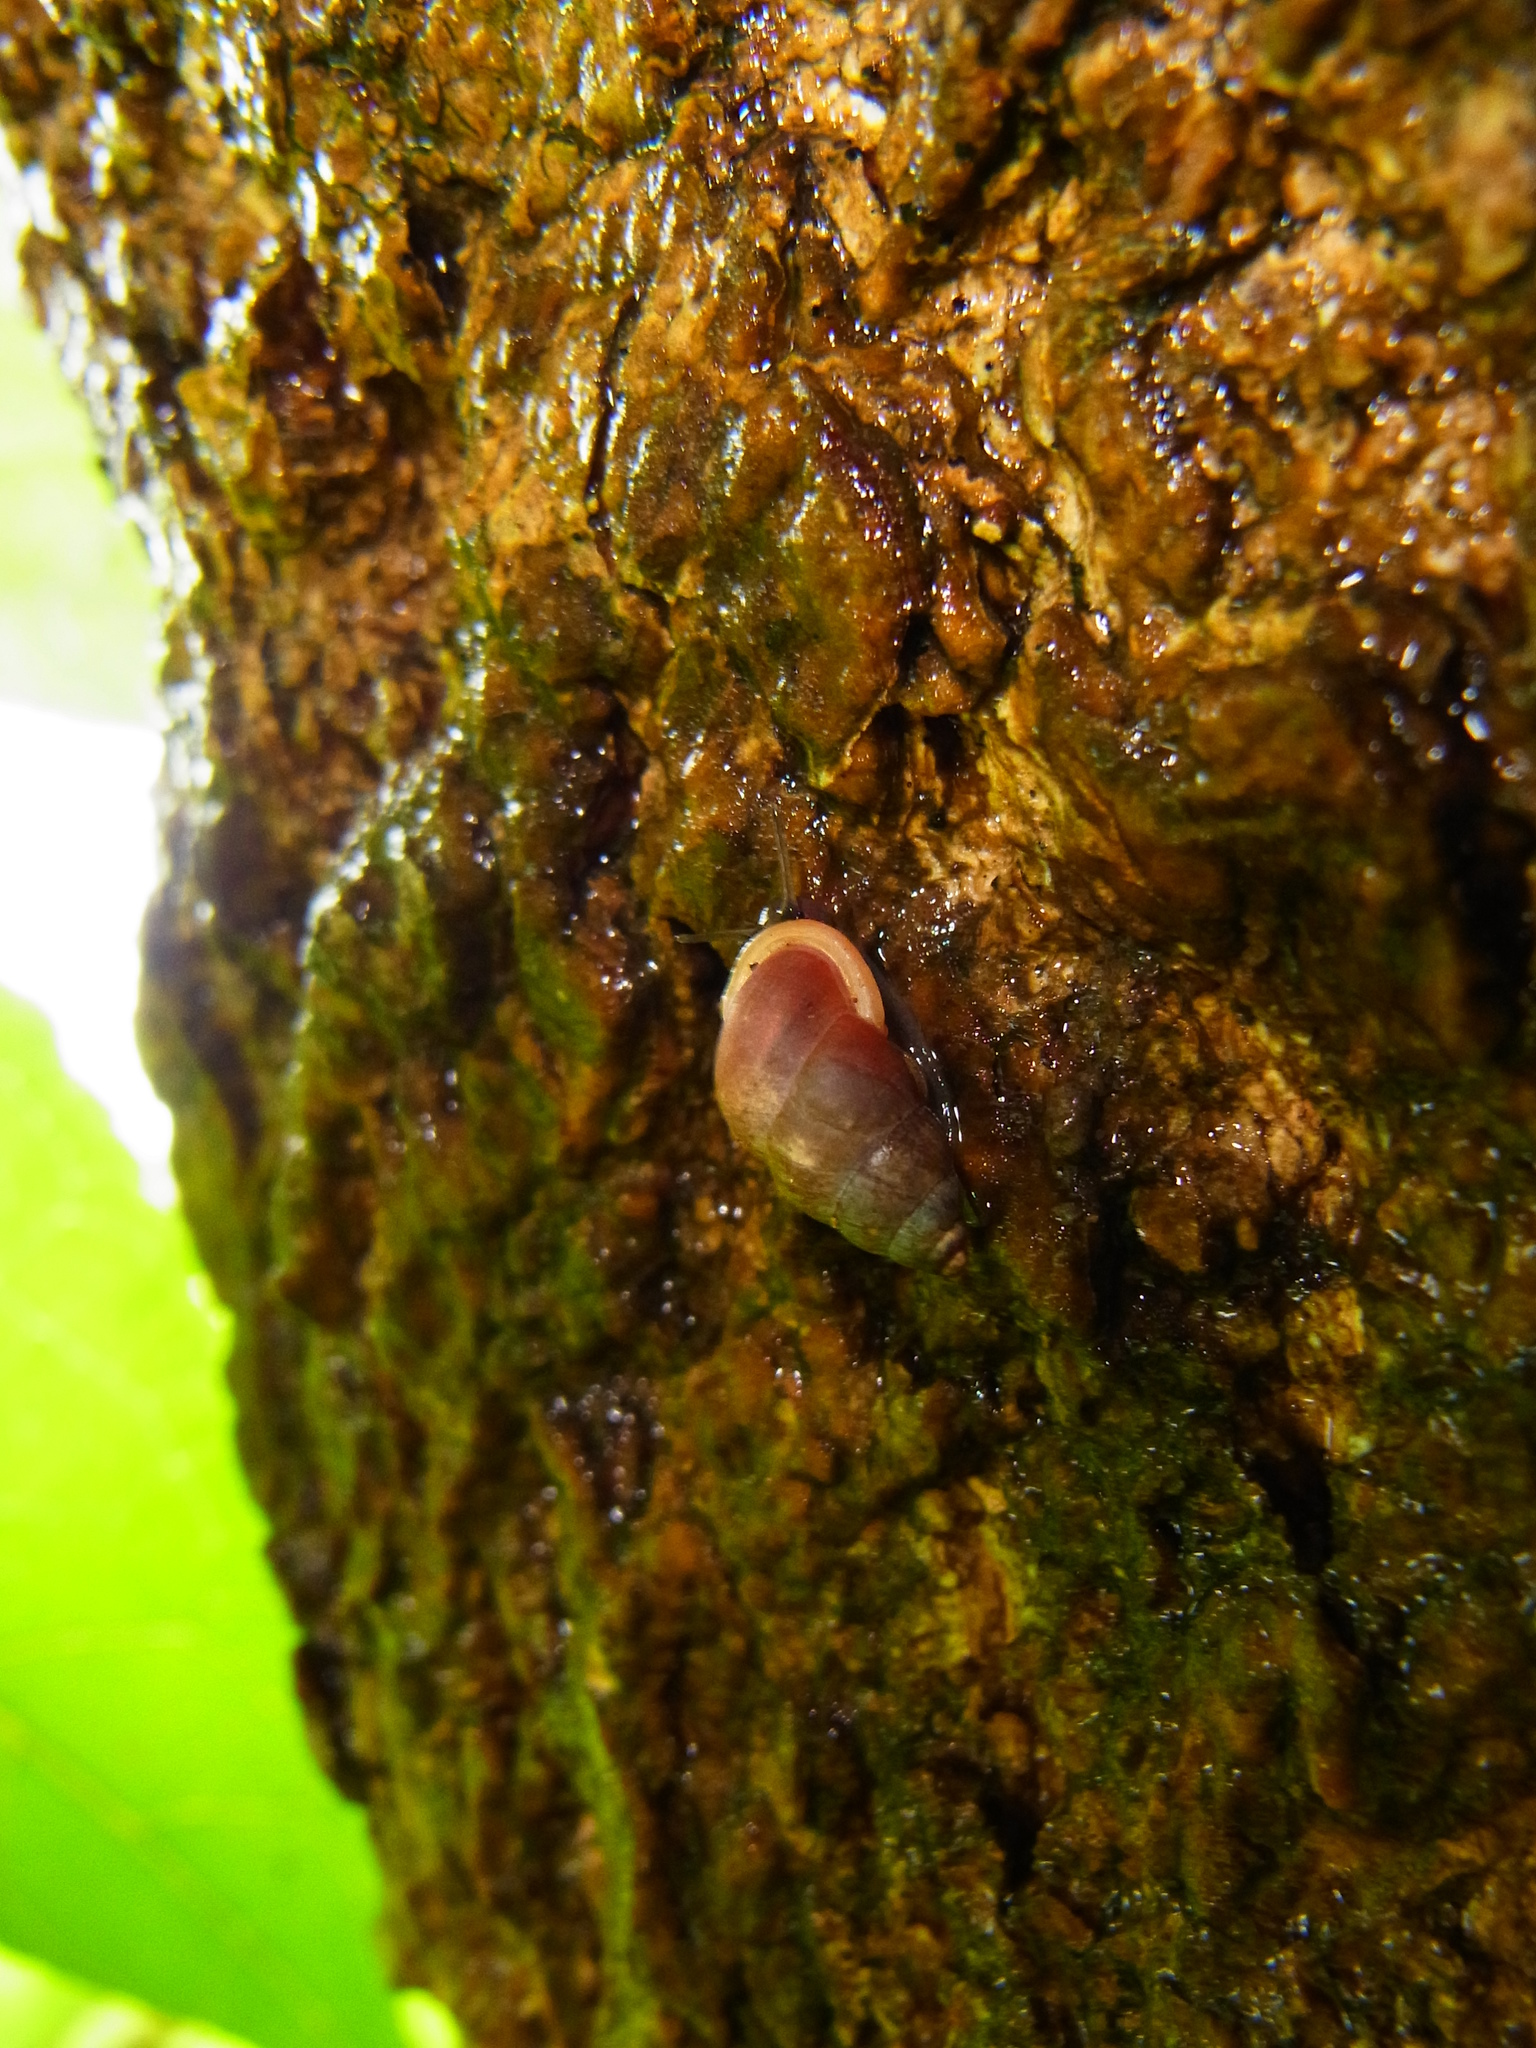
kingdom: Animalia
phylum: Mollusca
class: Gastropoda
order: Architaenioglossa
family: Pupinidae
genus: Pupinella
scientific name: Pupinella rufa
